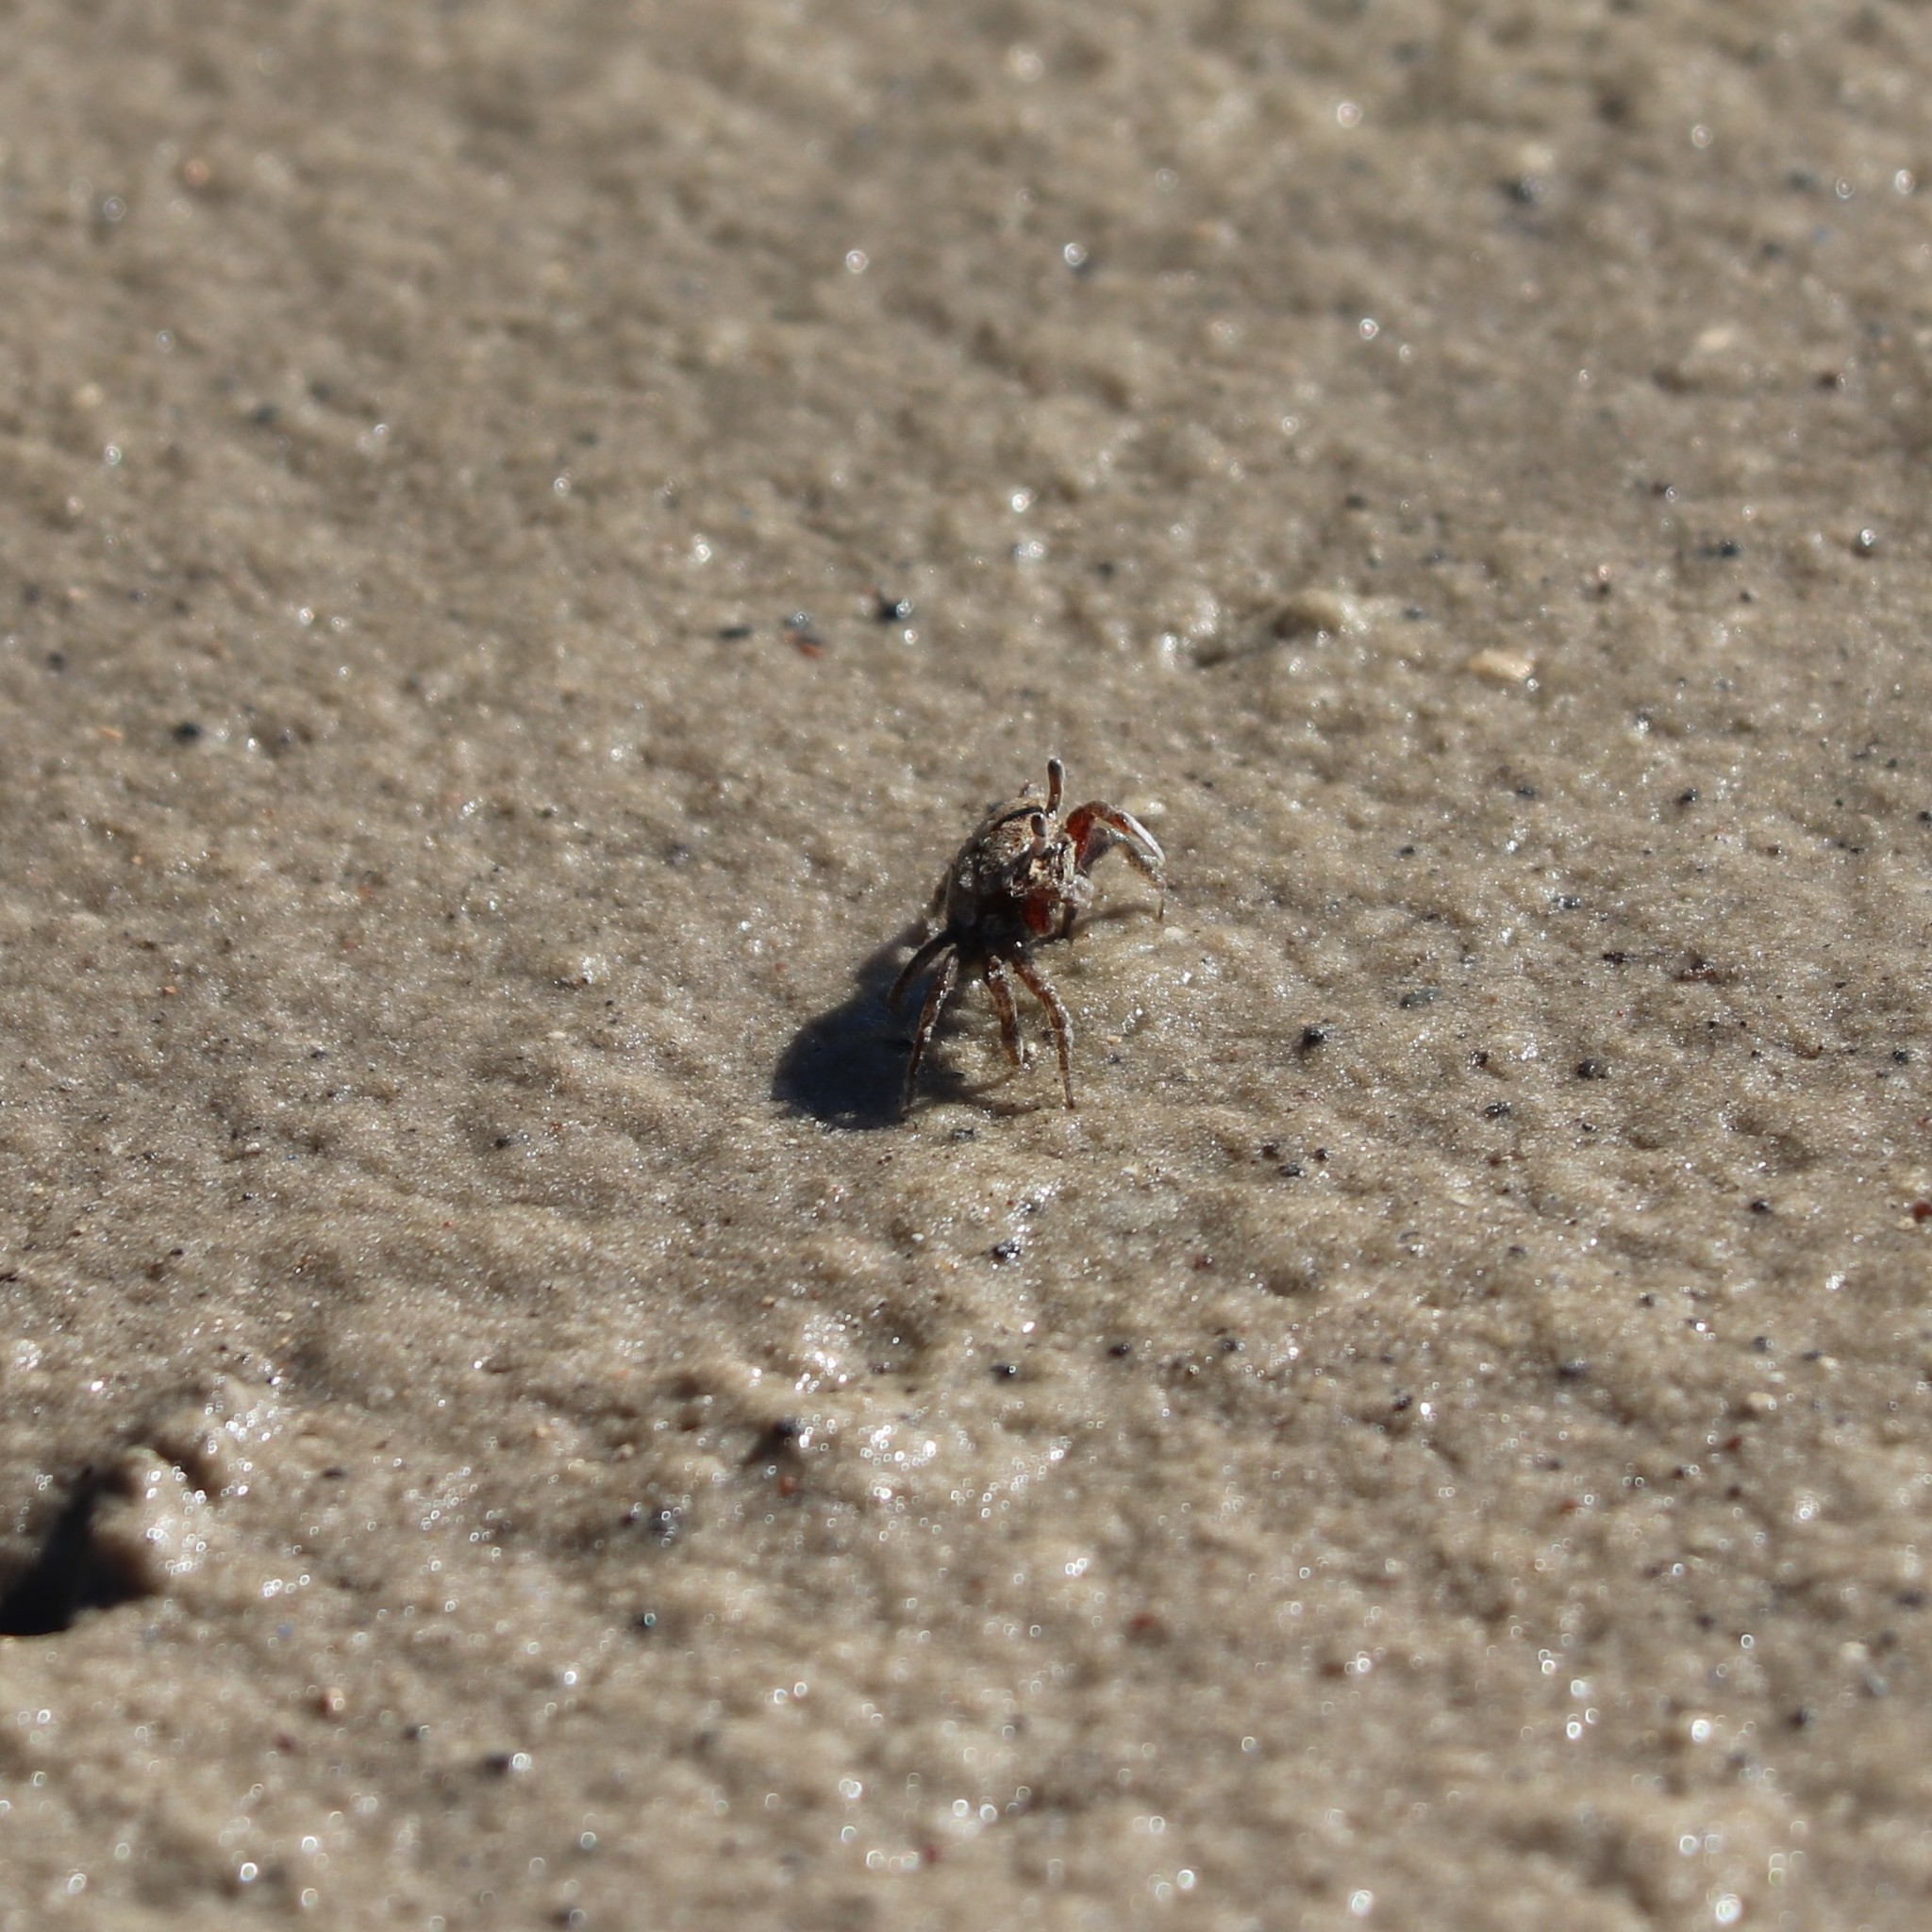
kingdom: Animalia
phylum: Arthropoda
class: Malacostraca
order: Decapoda
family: Ocypodidae
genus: Leptuca
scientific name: Leptuca pugilator
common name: Atlantic sand fiddler crab
